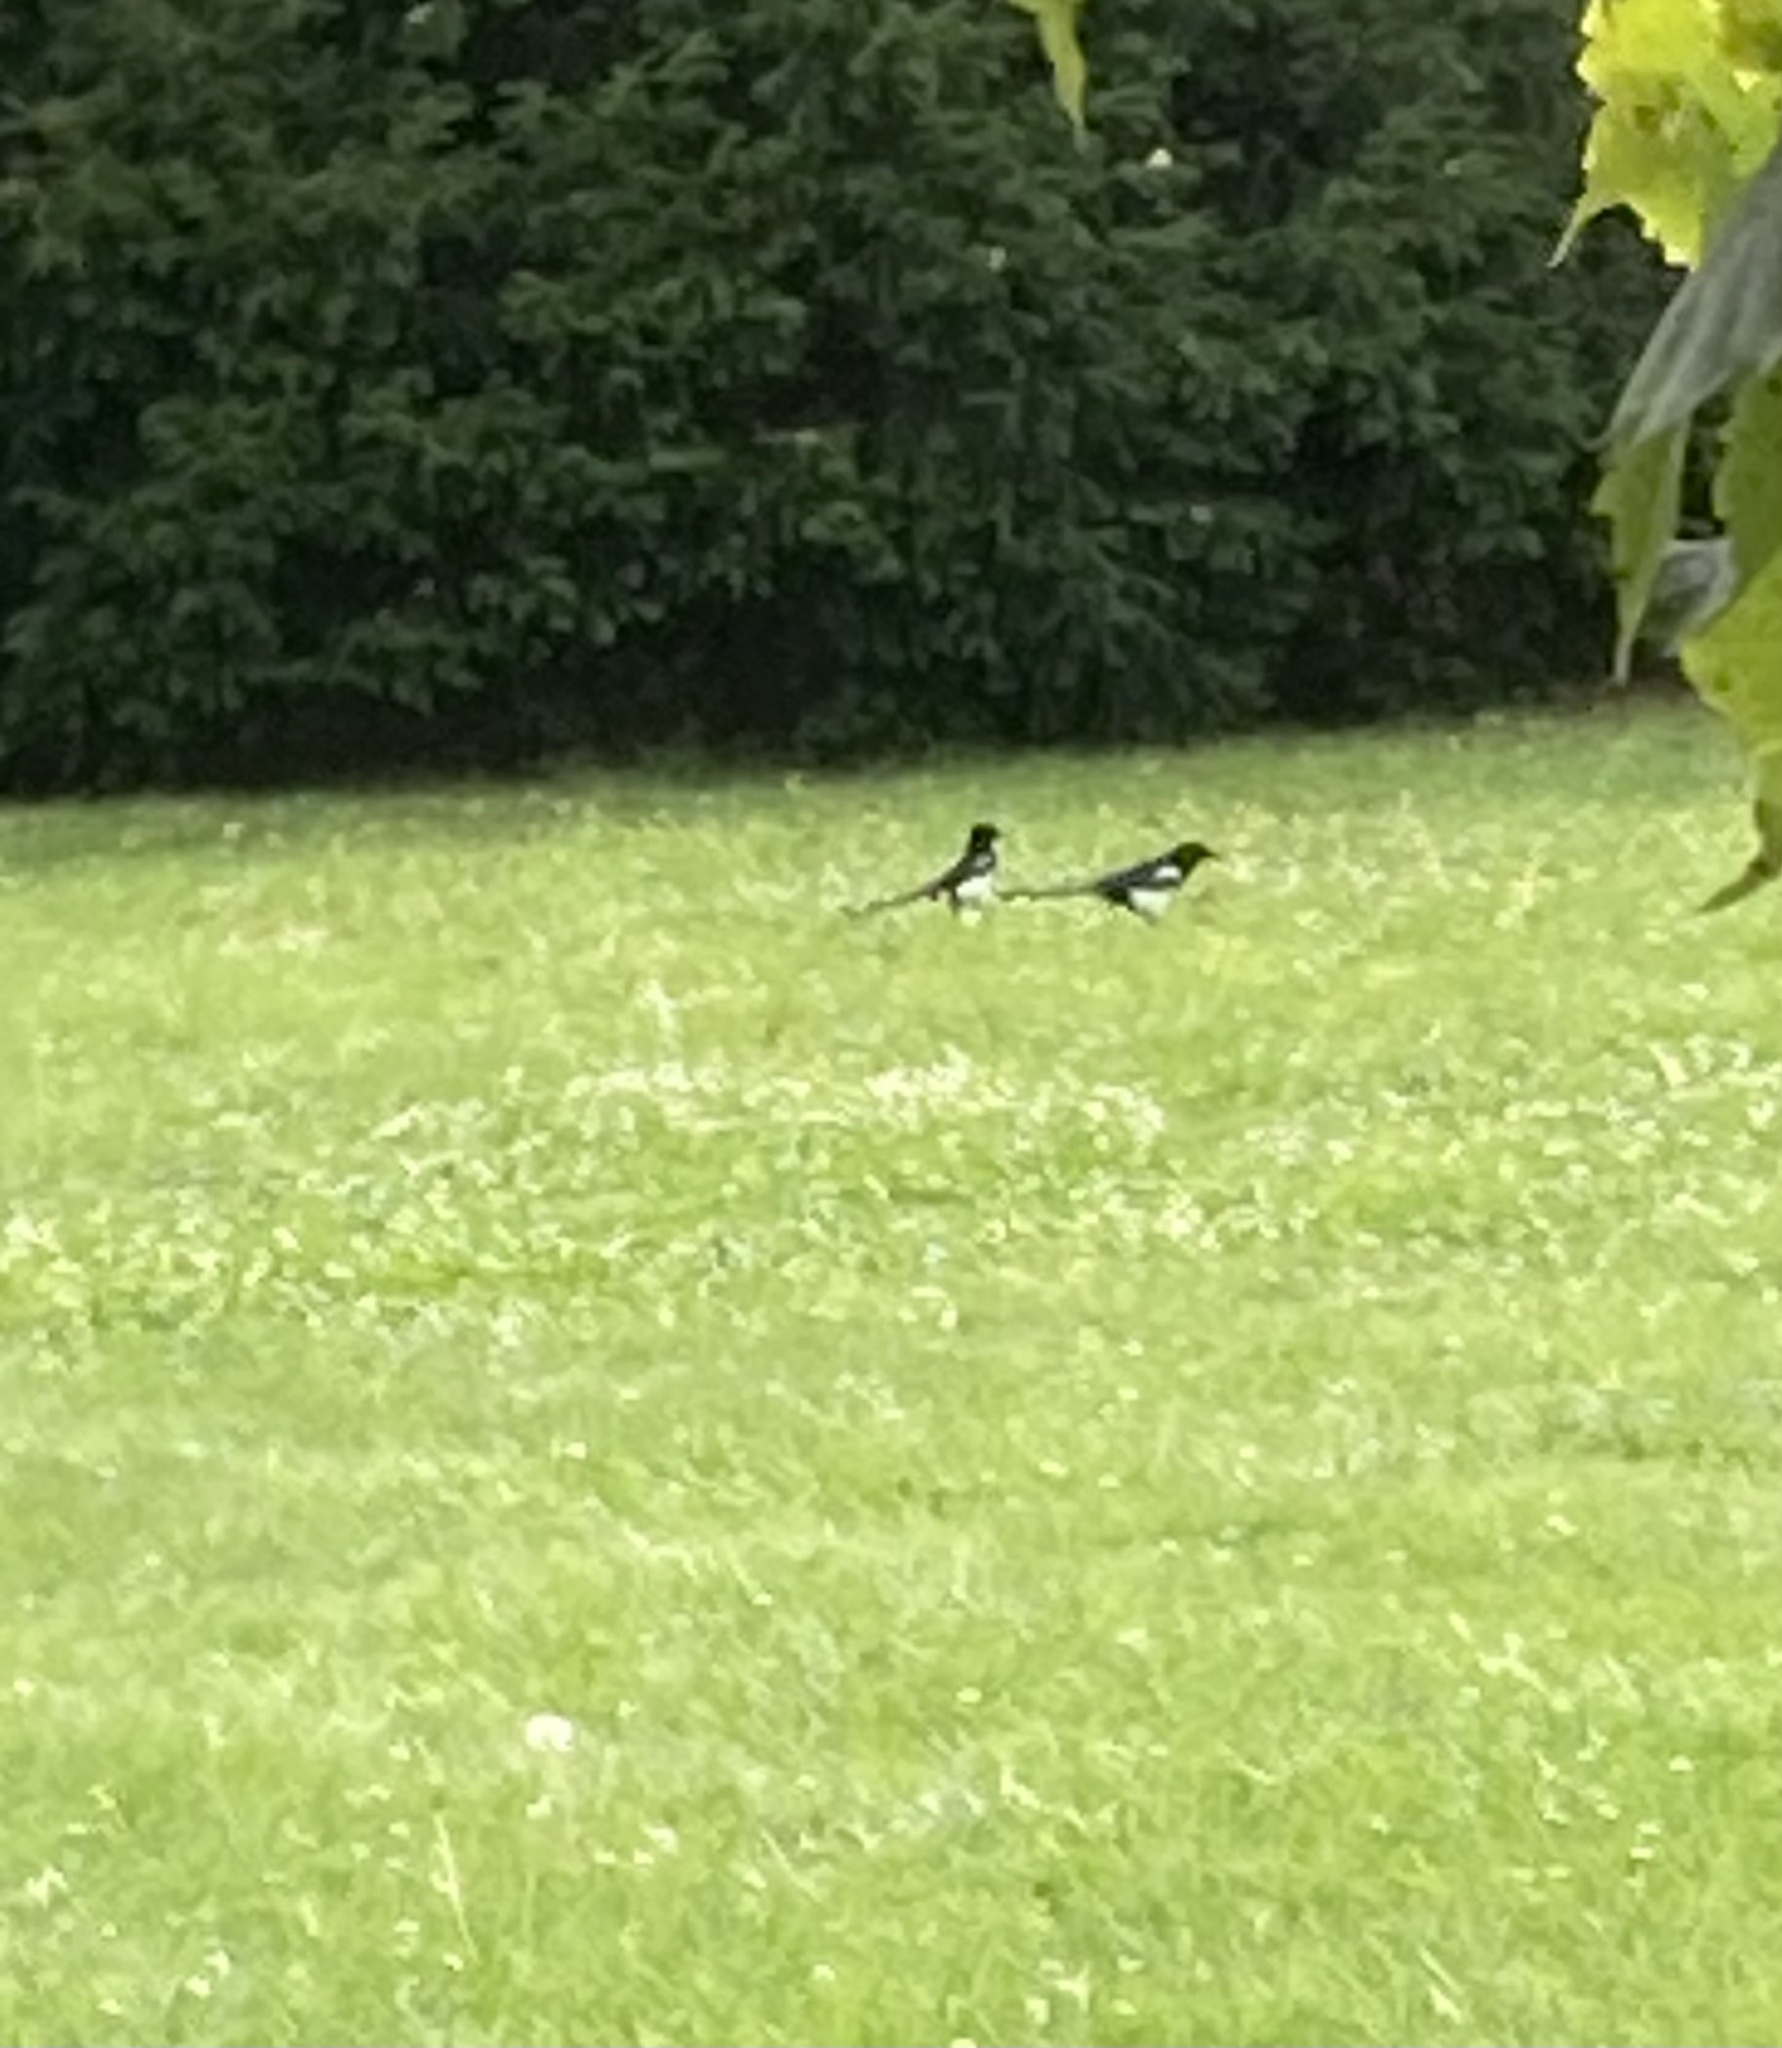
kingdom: Animalia
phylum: Chordata
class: Aves
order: Passeriformes
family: Corvidae
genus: Pica
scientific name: Pica pica
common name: Eurasian magpie
